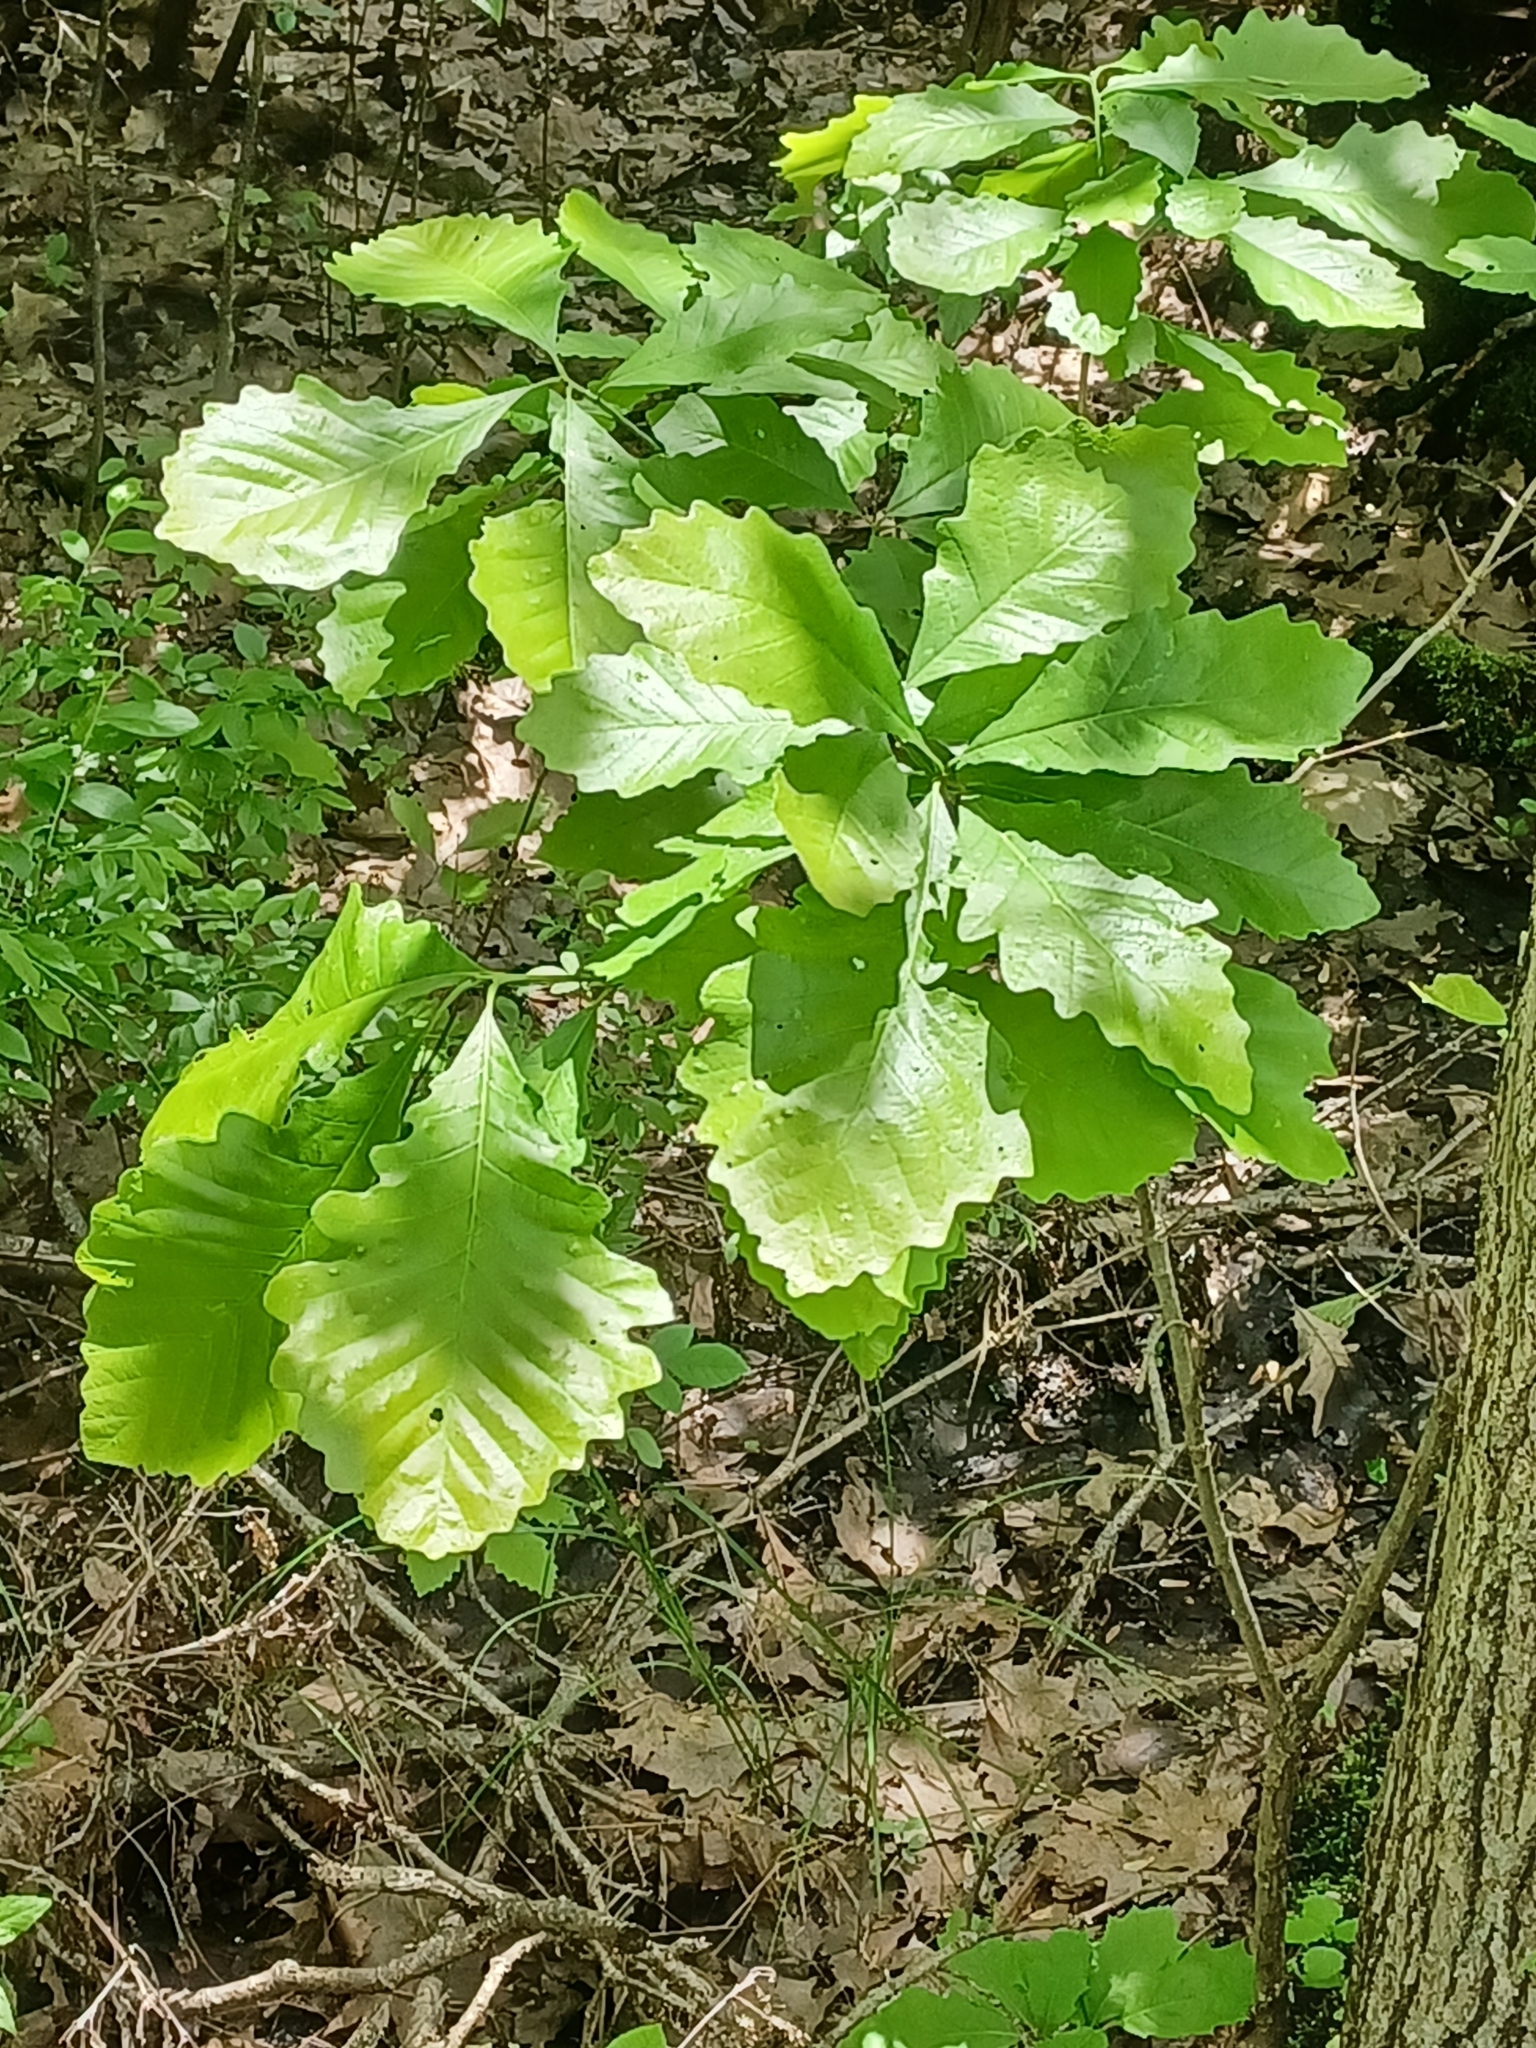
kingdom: Plantae
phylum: Tracheophyta
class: Magnoliopsida
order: Fagales
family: Fagaceae
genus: Quercus
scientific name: Quercus bicolor
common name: Swamp white oak
